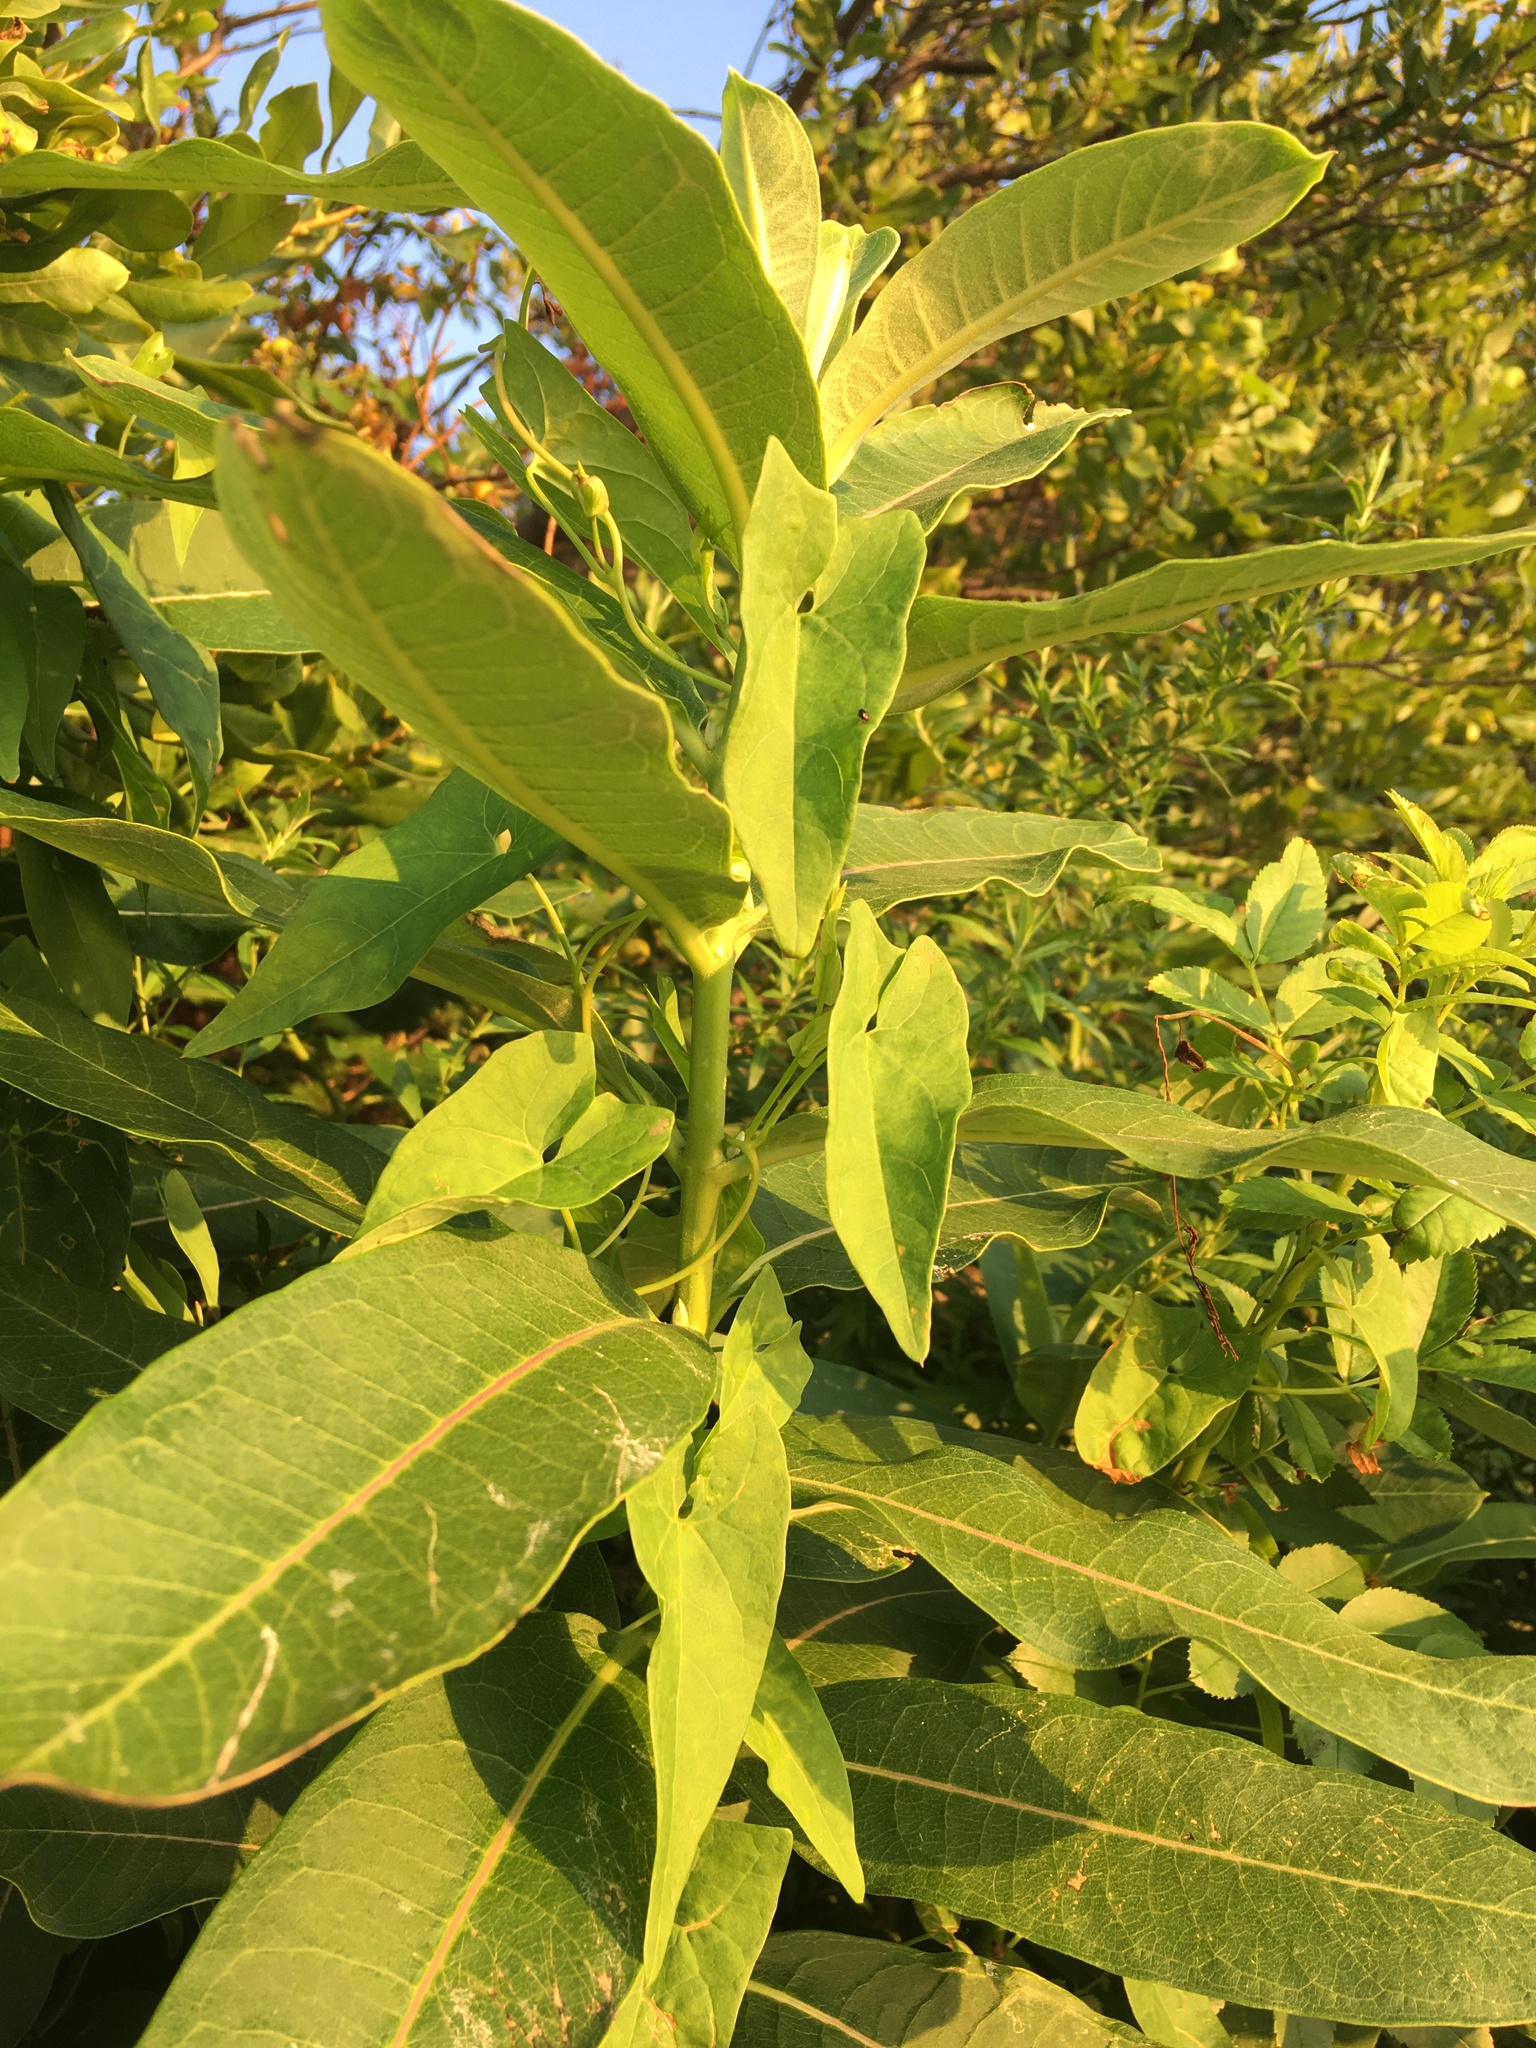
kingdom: Plantae
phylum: Tracheophyta
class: Magnoliopsida
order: Gentianales
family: Apocynaceae
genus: Asclepias
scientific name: Asclepias syriaca
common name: Common milkweed
